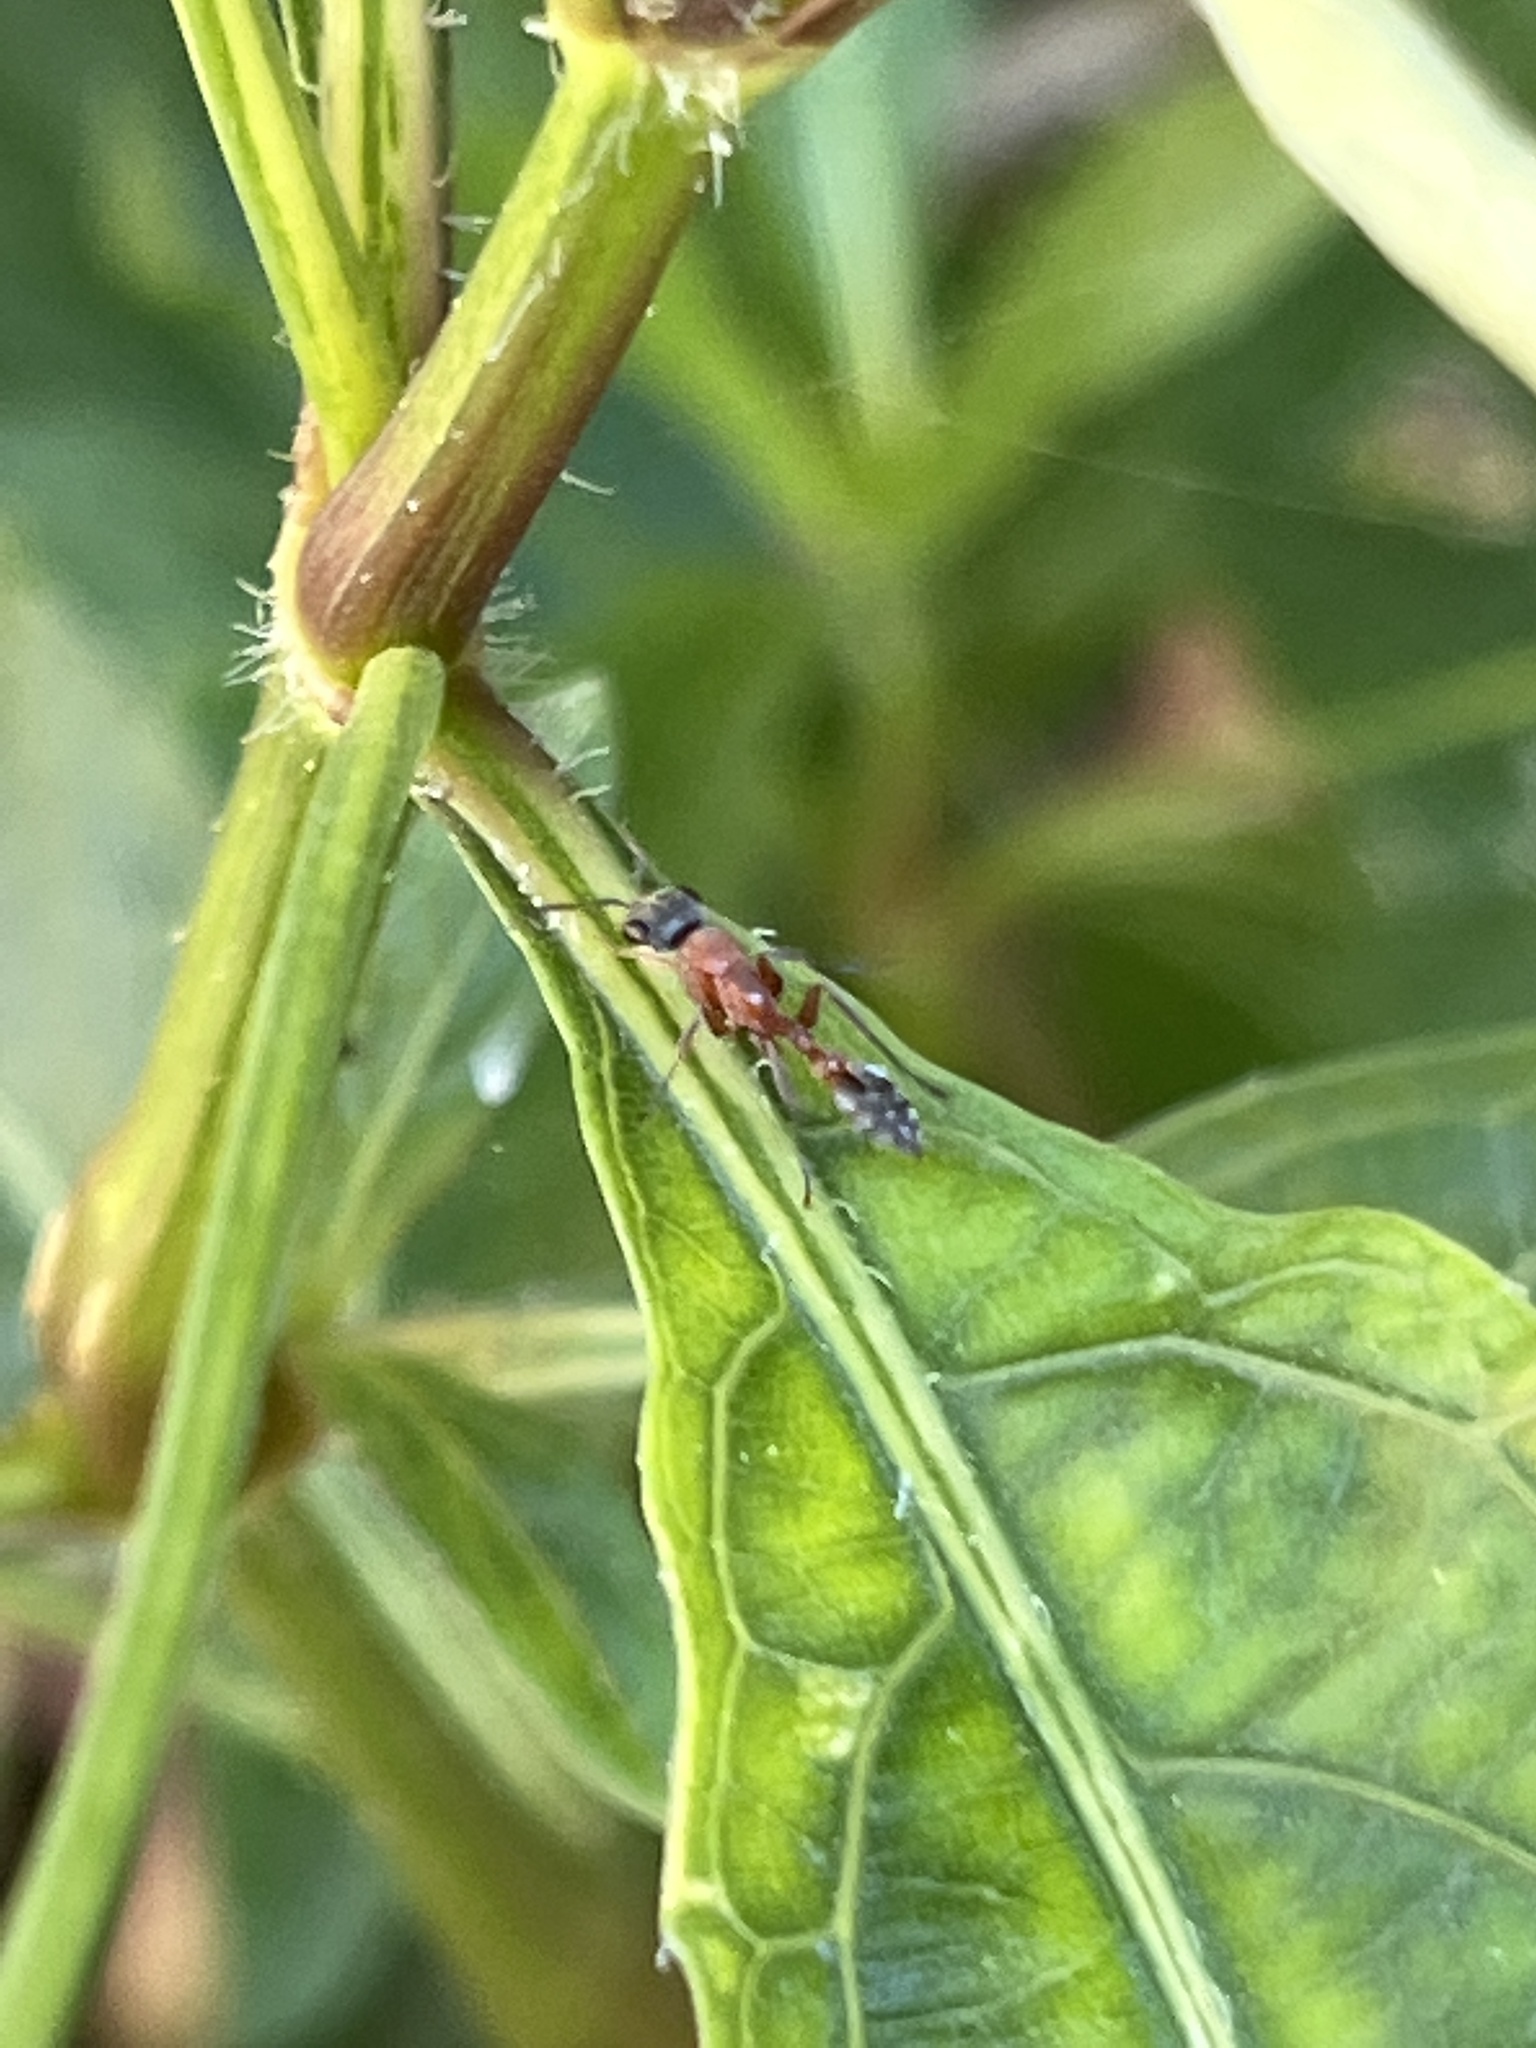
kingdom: Animalia
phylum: Arthropoda
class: Insecta
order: Hymenoptera
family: Formicidae
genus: Pseudomyrmex
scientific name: Pseudomyrmex gracilis
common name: Graceful twig ant
